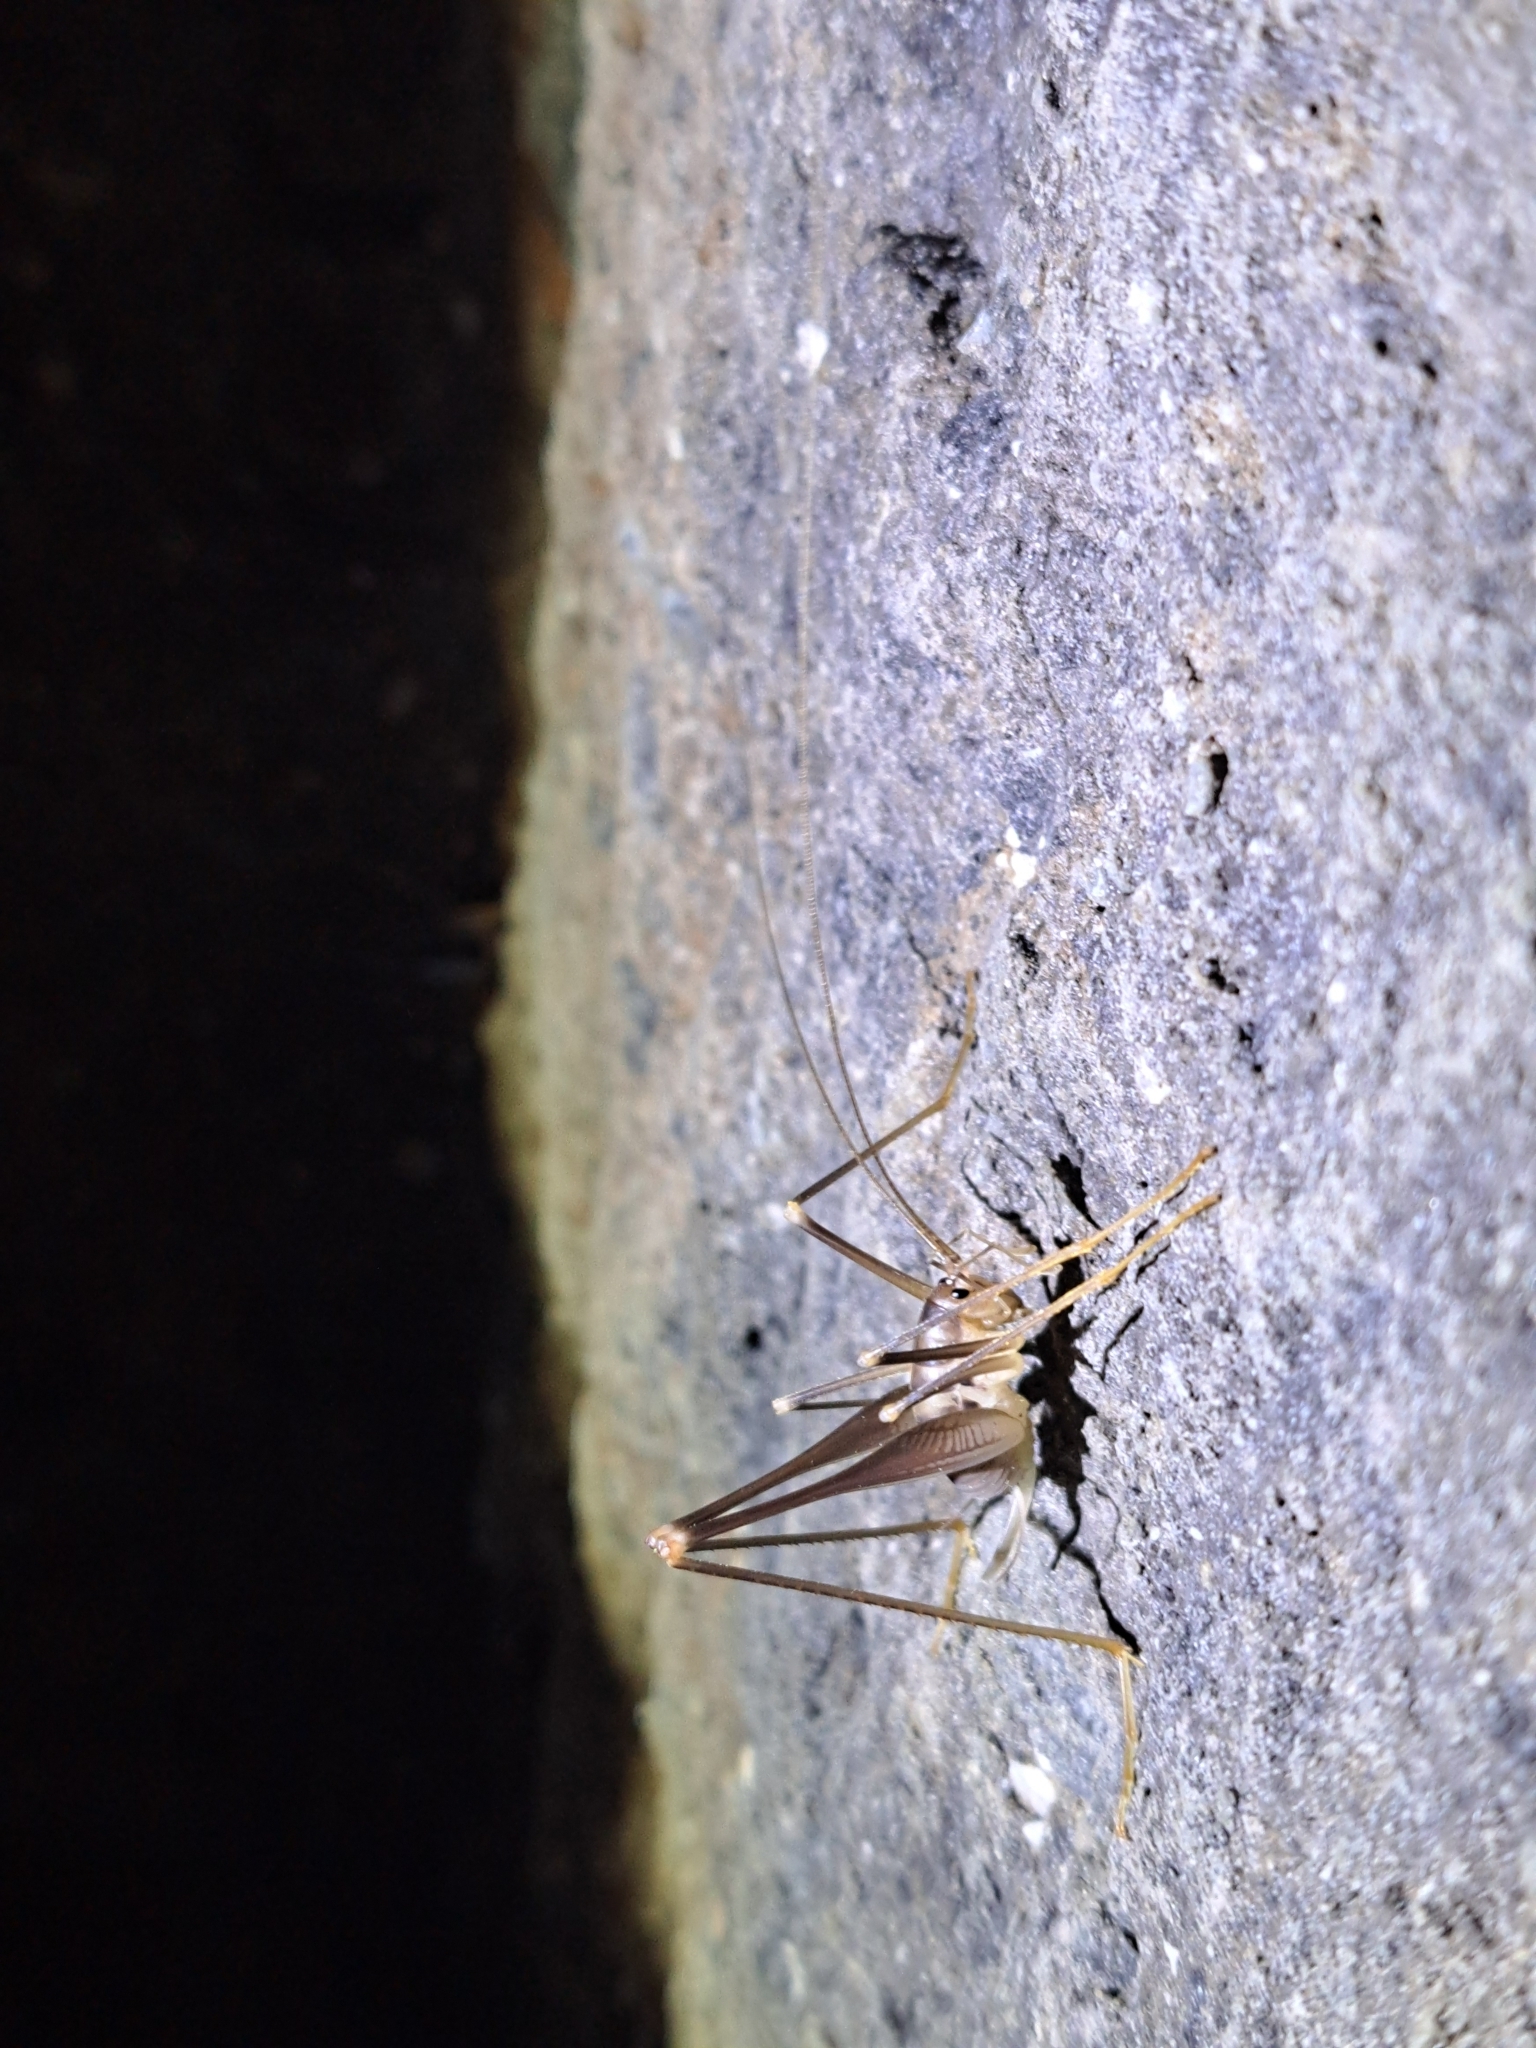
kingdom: Animalia
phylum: Arthropoda
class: Insecta
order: Orthoptera
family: Rhaphidophoridae
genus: Dolichopoda
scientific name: Dolichopoda geniculata
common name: Bended cave-cricket
